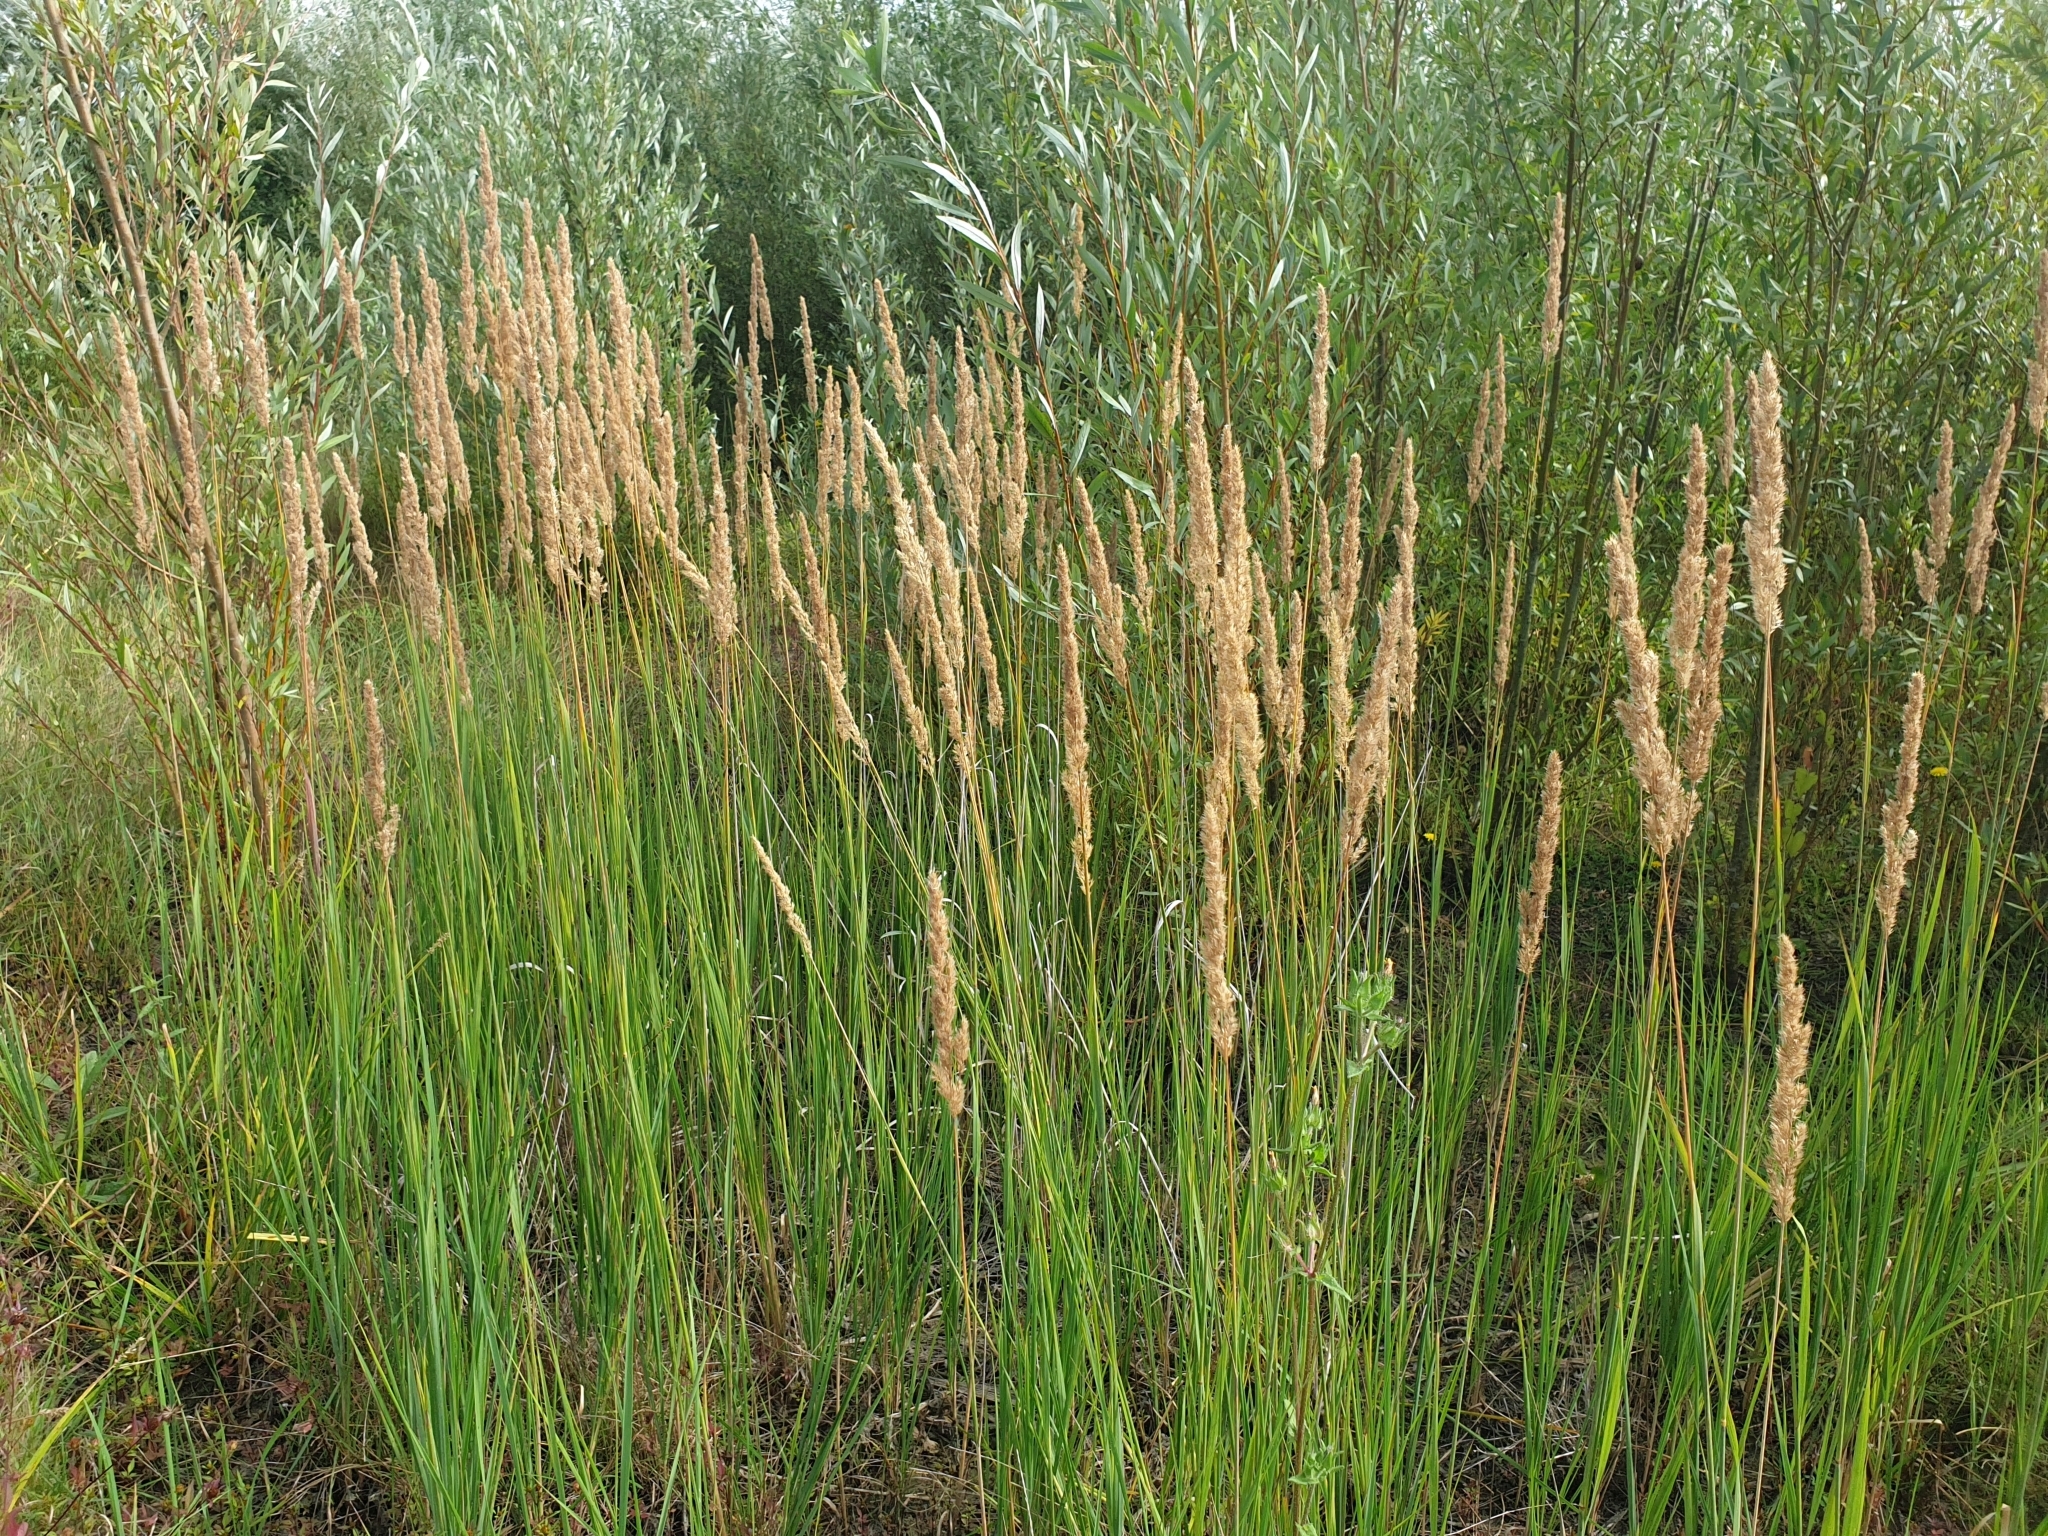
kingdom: Plantae
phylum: Tracheophyta
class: Liliopsida
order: Poales
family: Poaceae
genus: Calamagrostis
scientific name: Calamagrostis epigejos
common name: Wood small-reed
